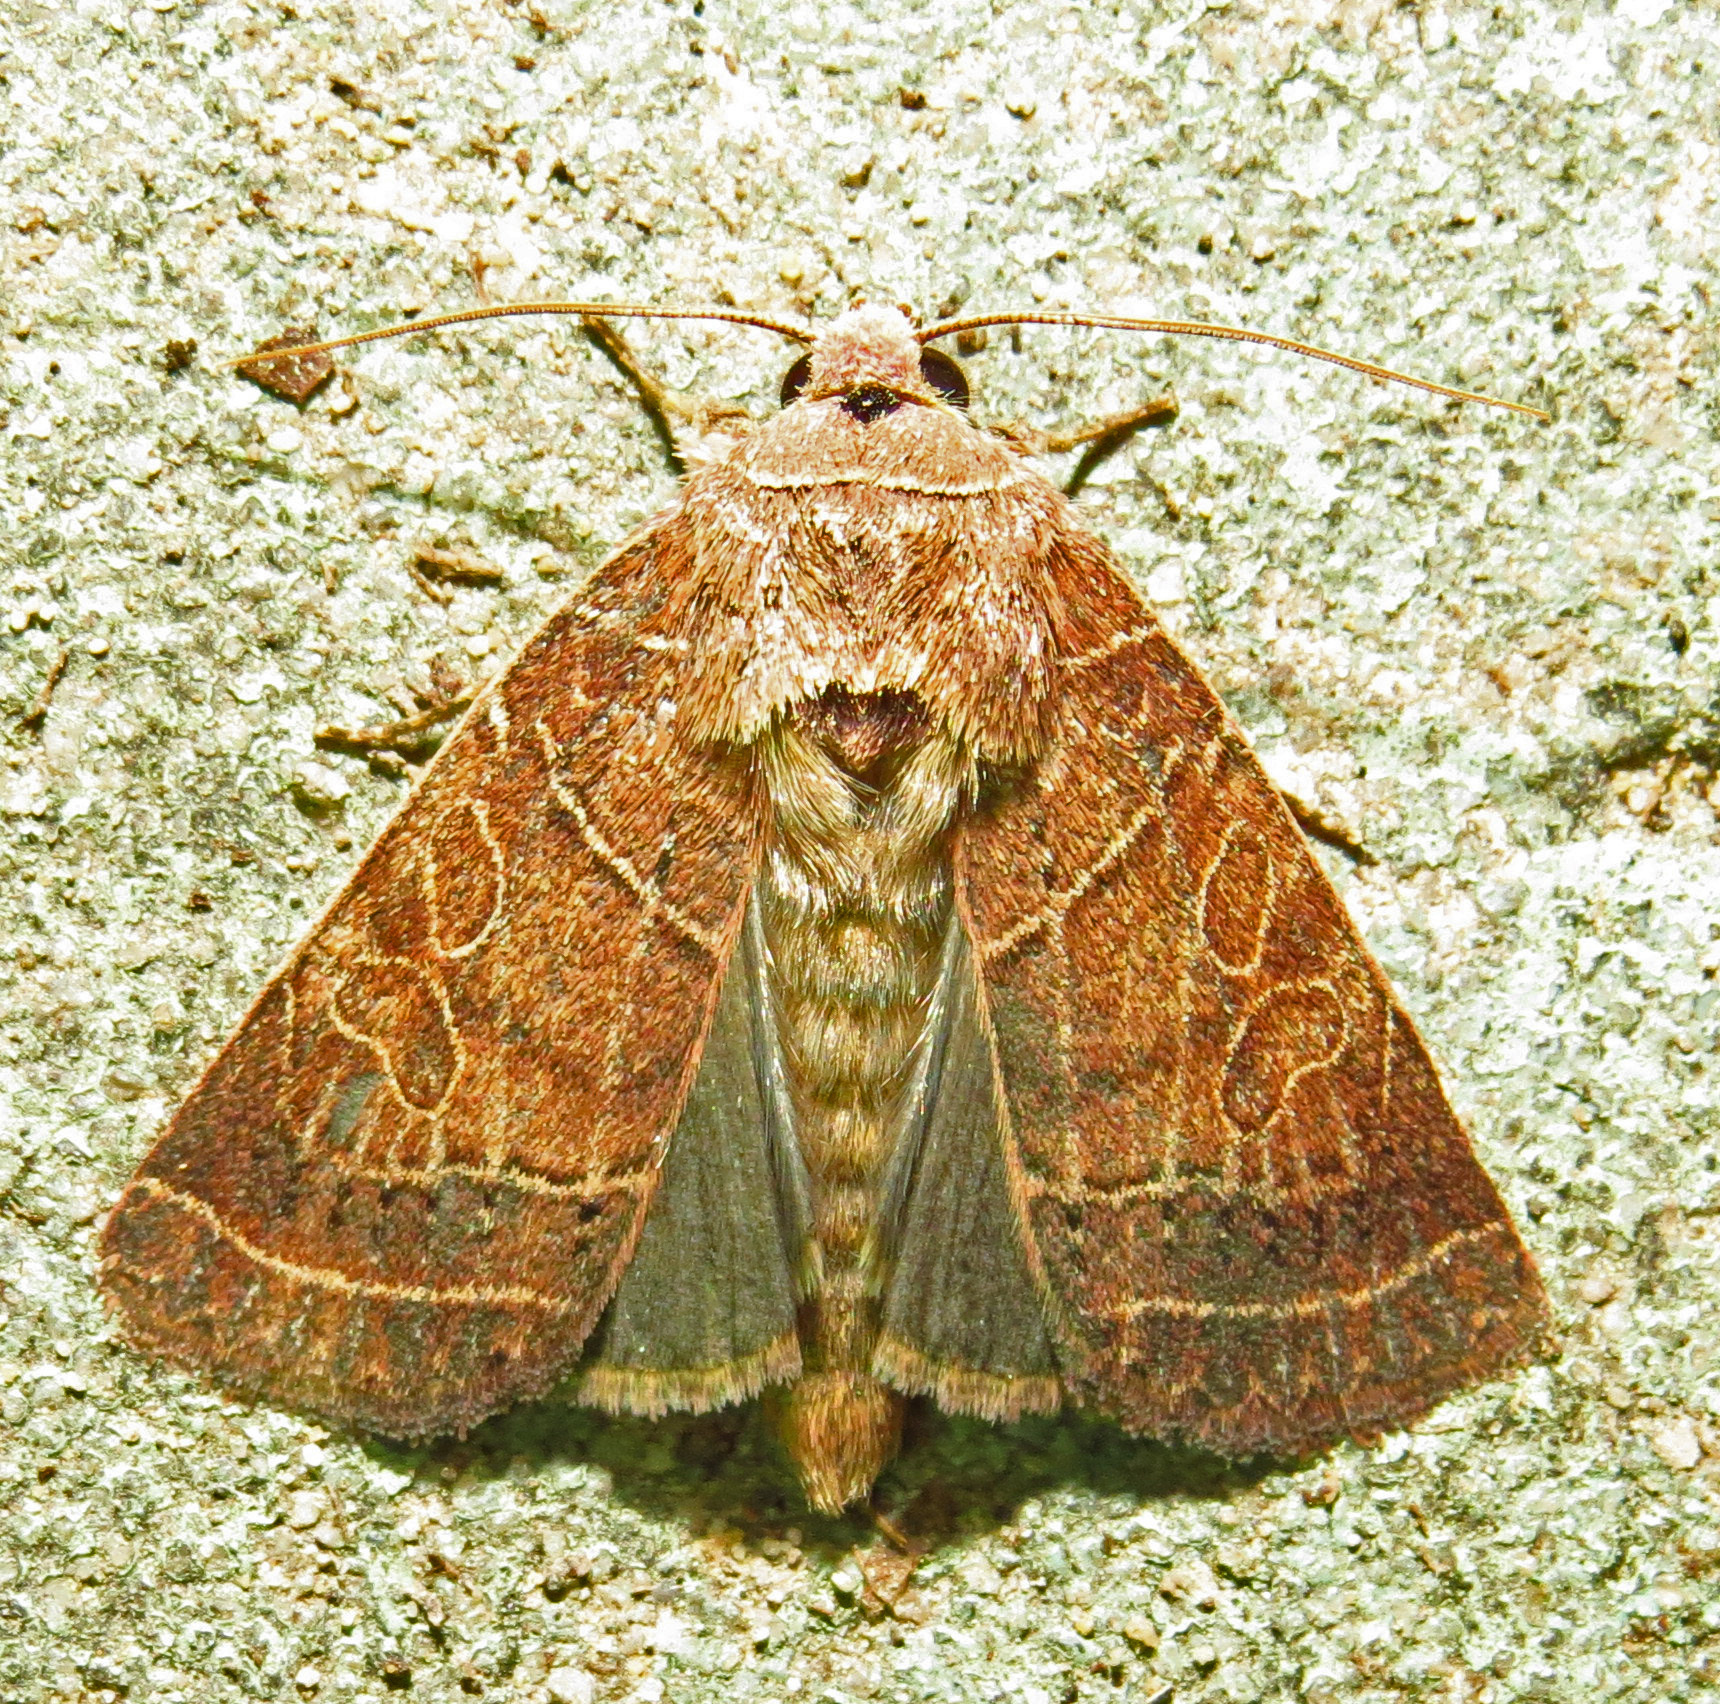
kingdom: Animalia
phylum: Arthropoda
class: Insecta
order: Lepidoptera
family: Noctuidae
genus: Orthodes
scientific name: Orthodes majuscula
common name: Rustic quaker
